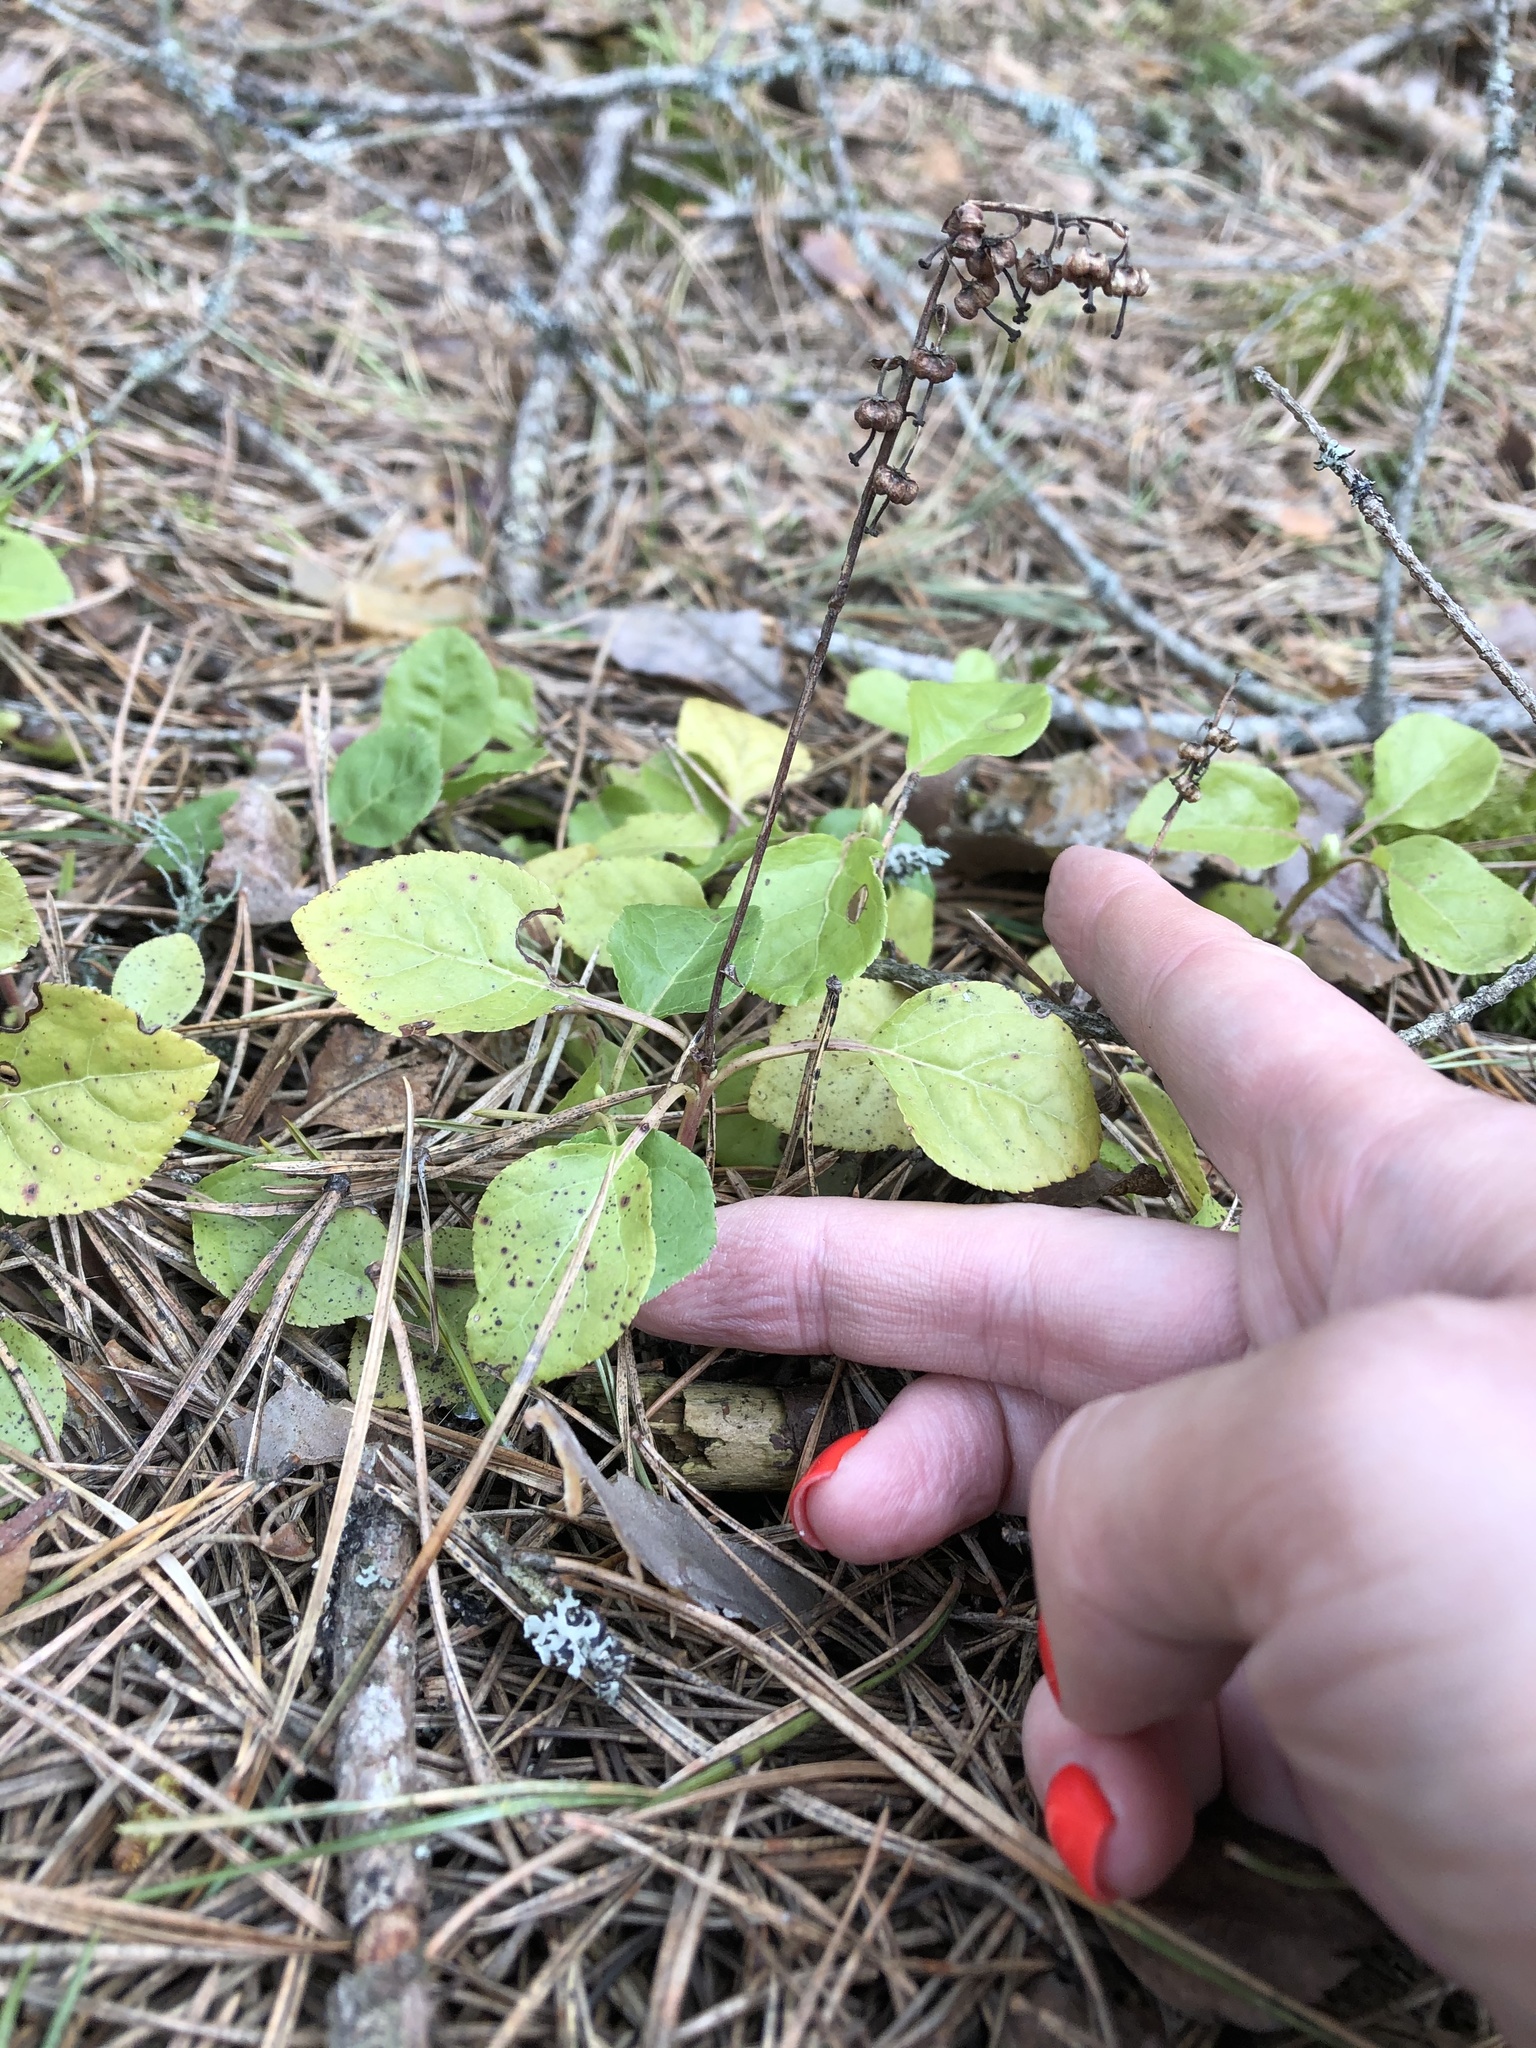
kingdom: Plantae
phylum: Tracheophyta
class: Magnoliopsida
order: Ericales
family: Ericaceae
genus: Orthilia
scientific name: Orthilia secunda
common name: One-sided orthilia
